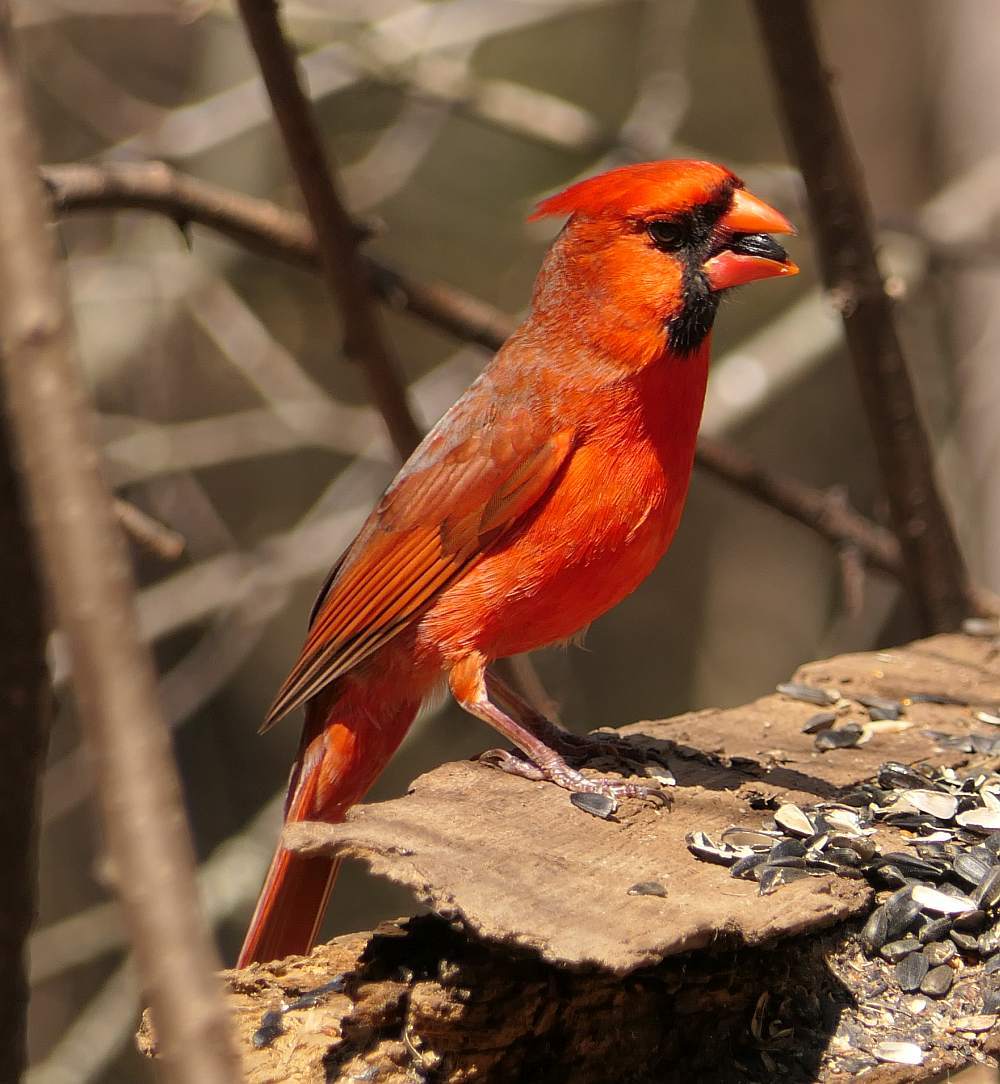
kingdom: Animalia
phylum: Chordata
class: Aves
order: Passeriformes
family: Cardinalidae
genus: Cardinalis
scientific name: Cardinalis cardinalis
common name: Northern cardinal
